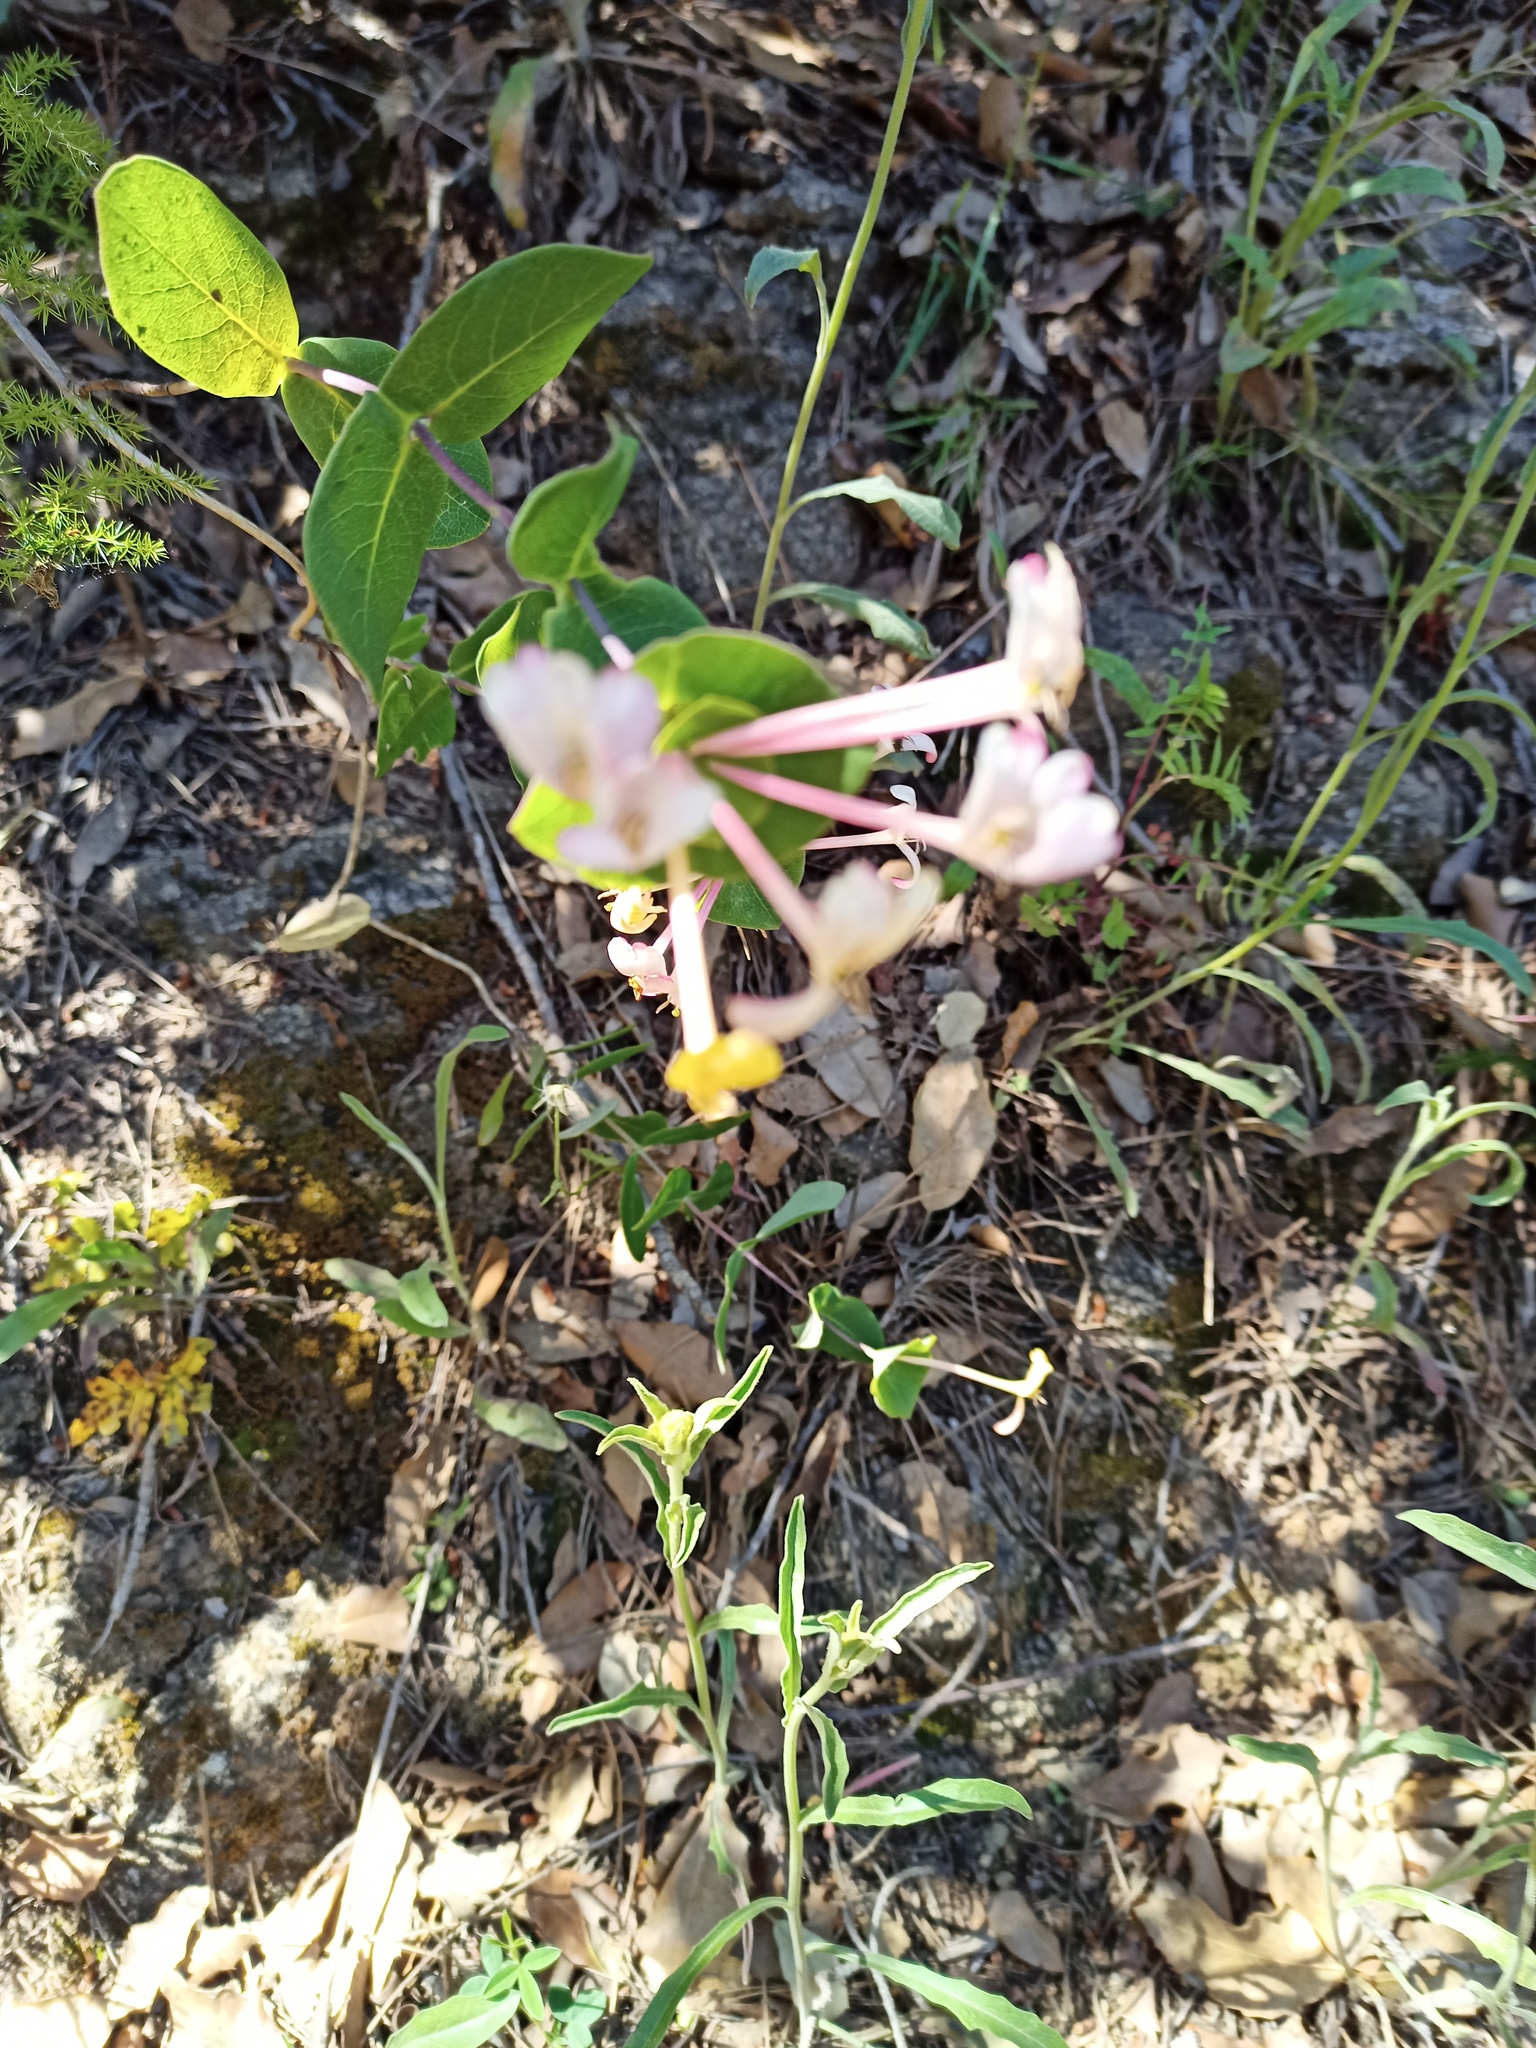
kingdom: Plantae
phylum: Tracheophyta
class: Magnoliopsida
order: Dipsacales
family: Caprifoliaceae
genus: Lonicera
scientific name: Lonicera implexa
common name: Minorca honeysuckle
